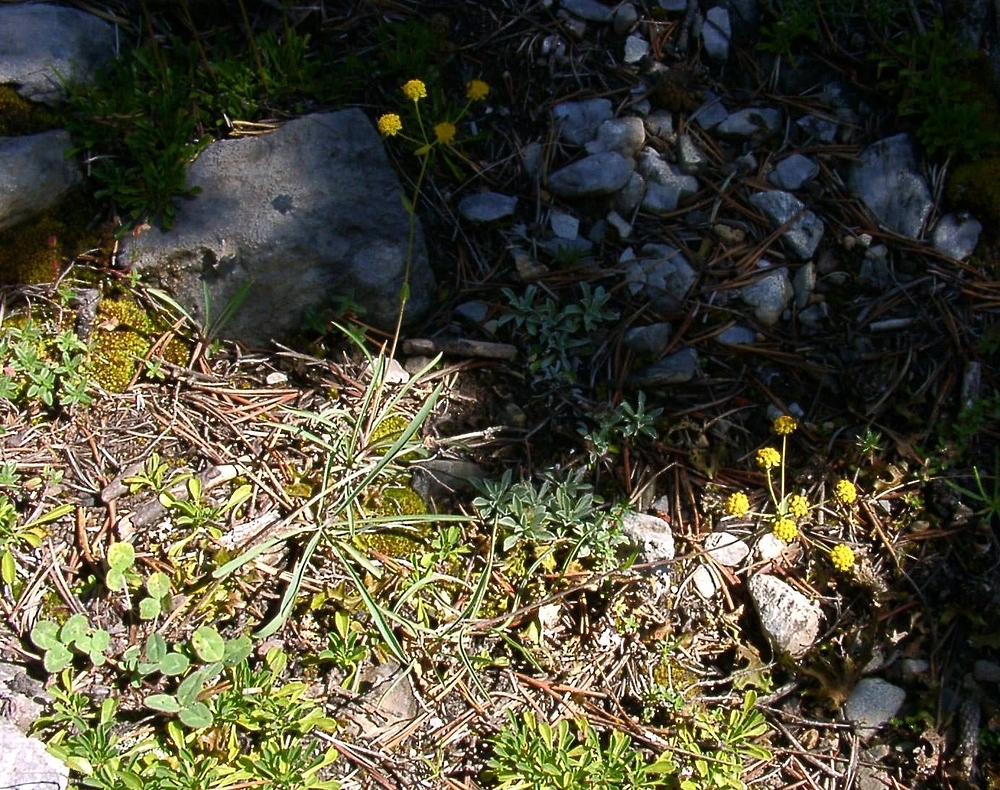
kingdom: Plantae
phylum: Tracheophyta
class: Magnoliopsida
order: Apiales
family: Apiaceae
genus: Bupleurum
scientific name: Bupleurum ranunculoides
